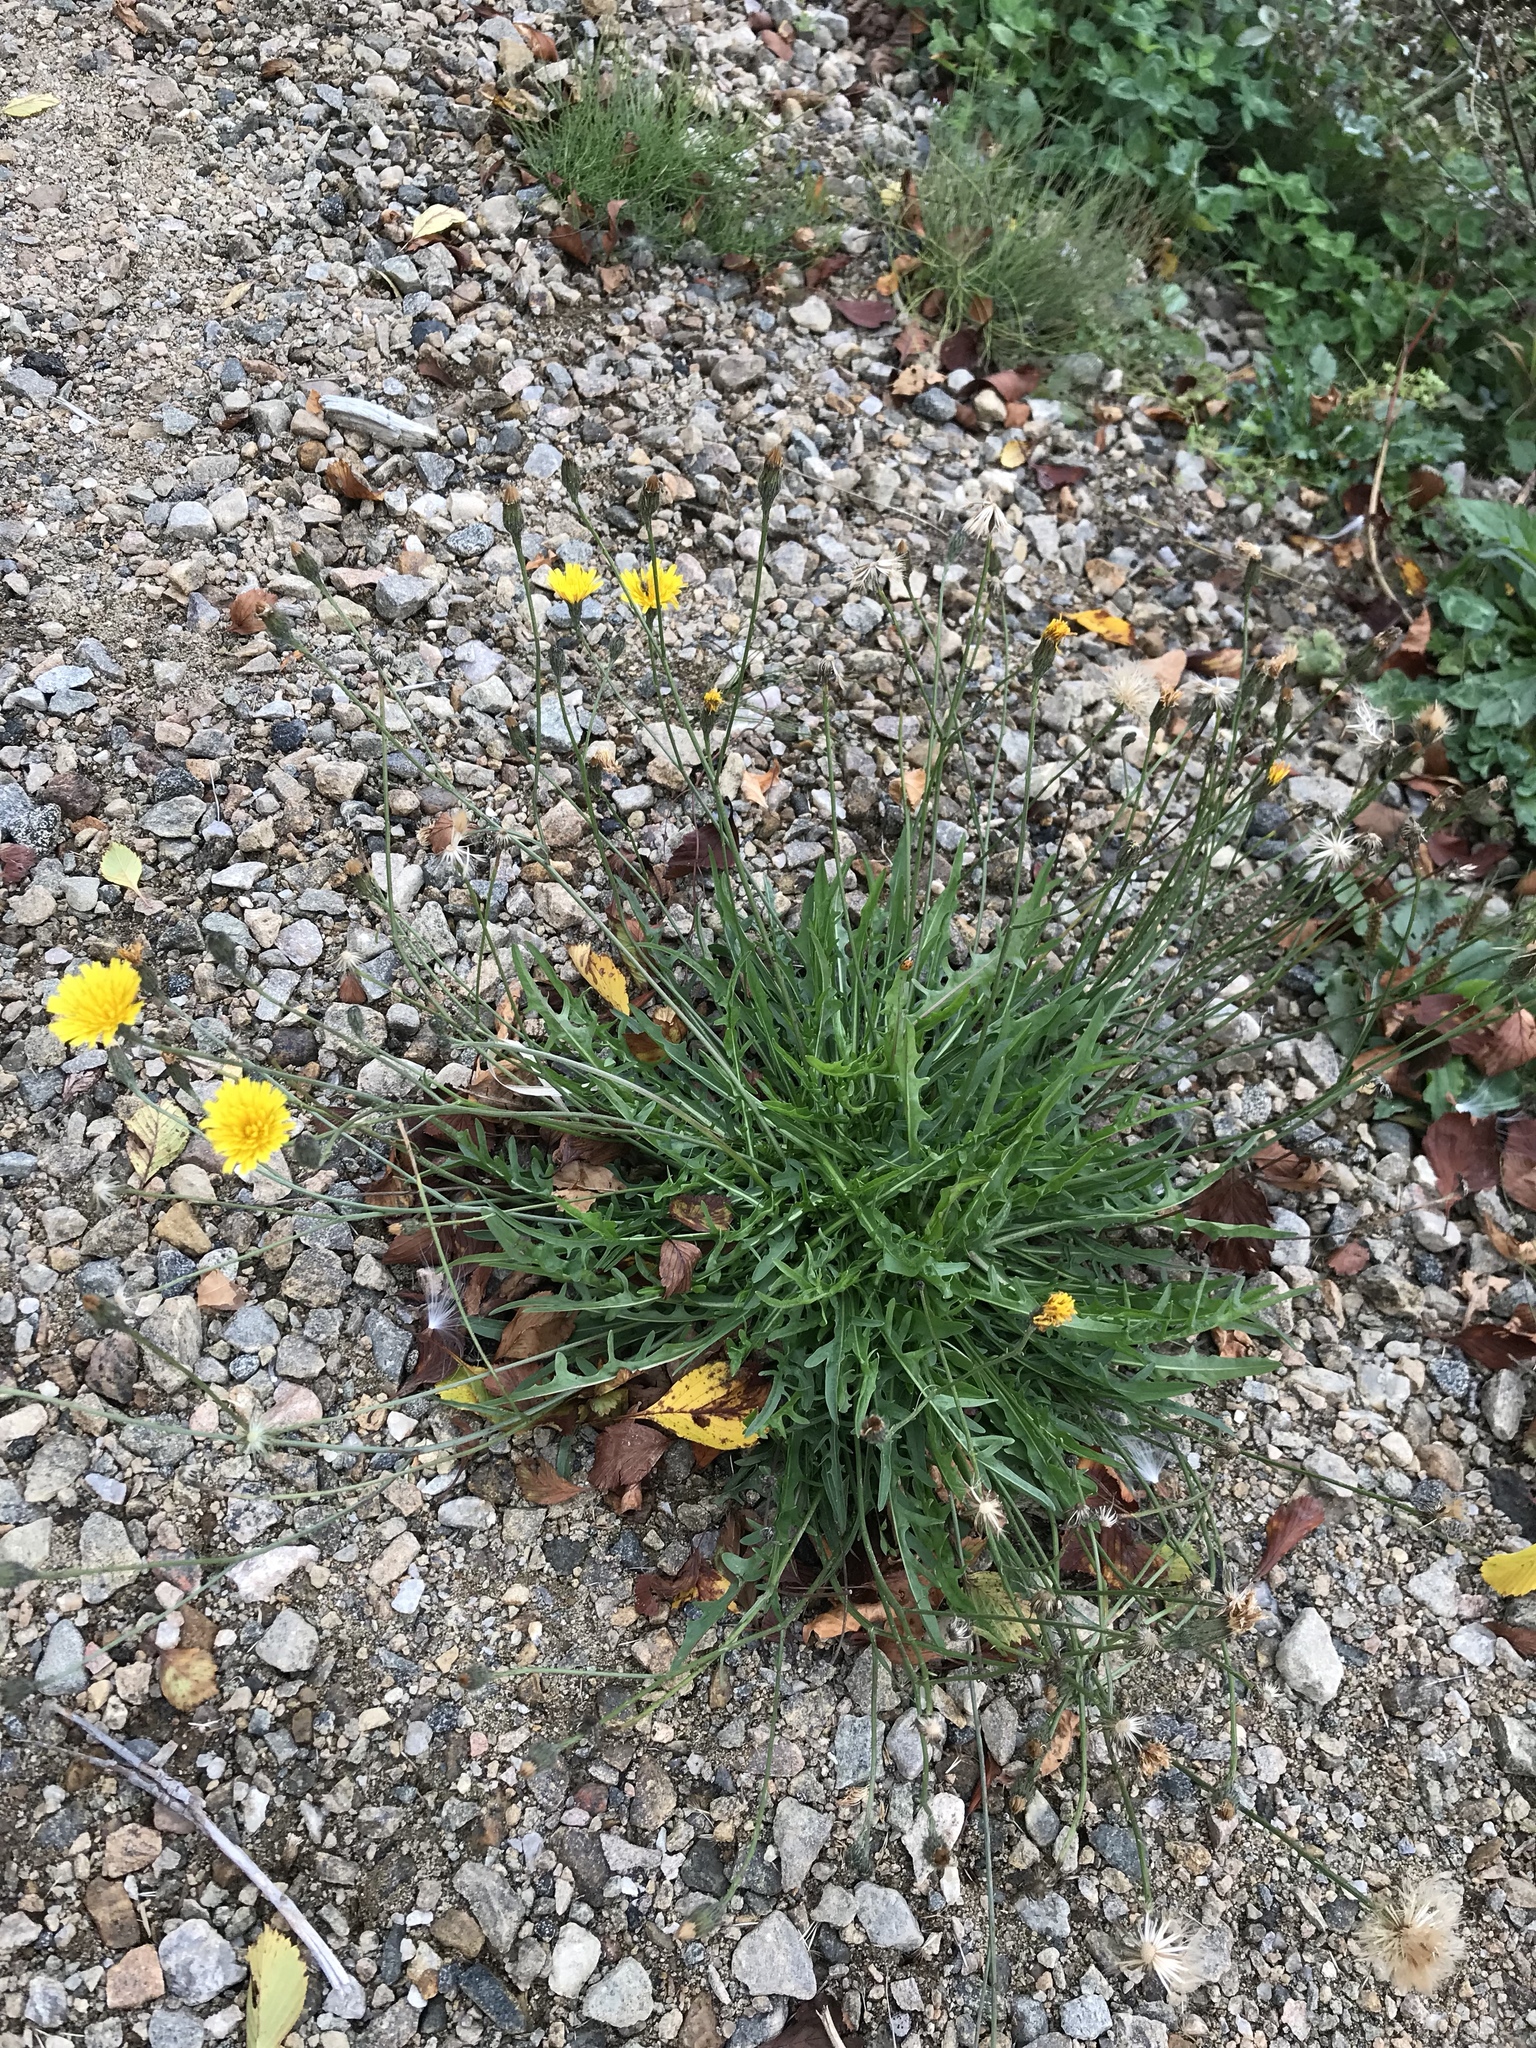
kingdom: Plantae
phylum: Tracheophyta
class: Magnoliopsida
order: Asterales
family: Asteraceae
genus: Scorzoneroides
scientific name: Scorzoneroides autumnalis
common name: Autumn hawkbit
